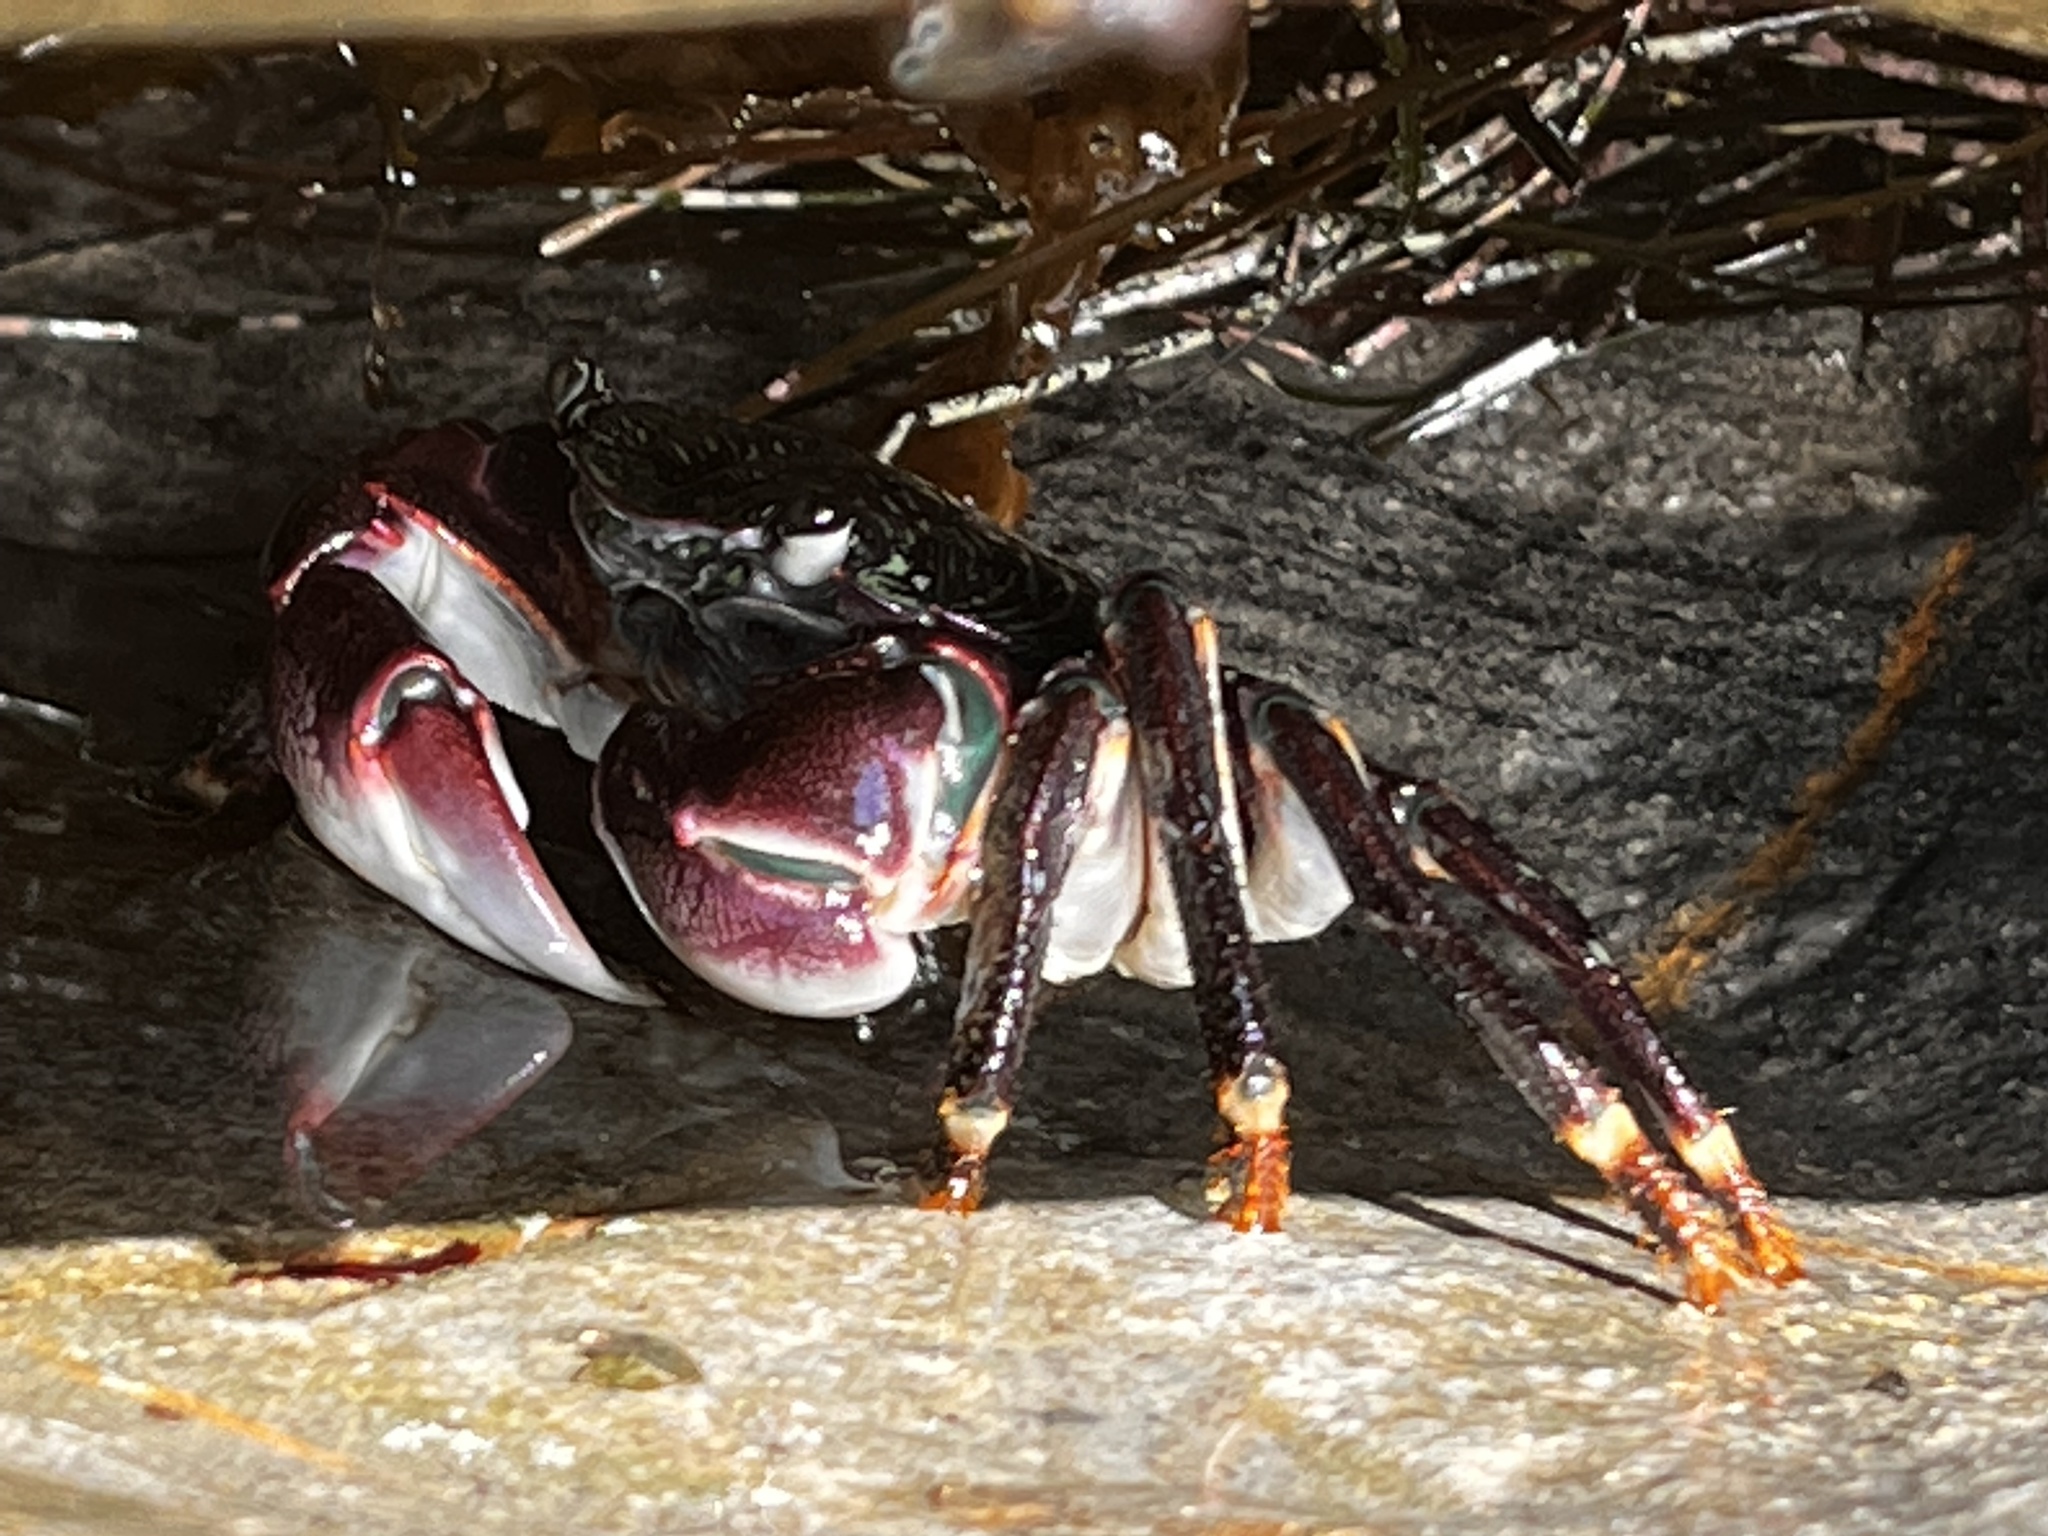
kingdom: Animalia
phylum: Arthropoda
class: Malacostraca
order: Decapoda
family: Grapsidae
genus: Pachygrapsus
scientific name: Pachygrapsus crassipes
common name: Striped shore crab
